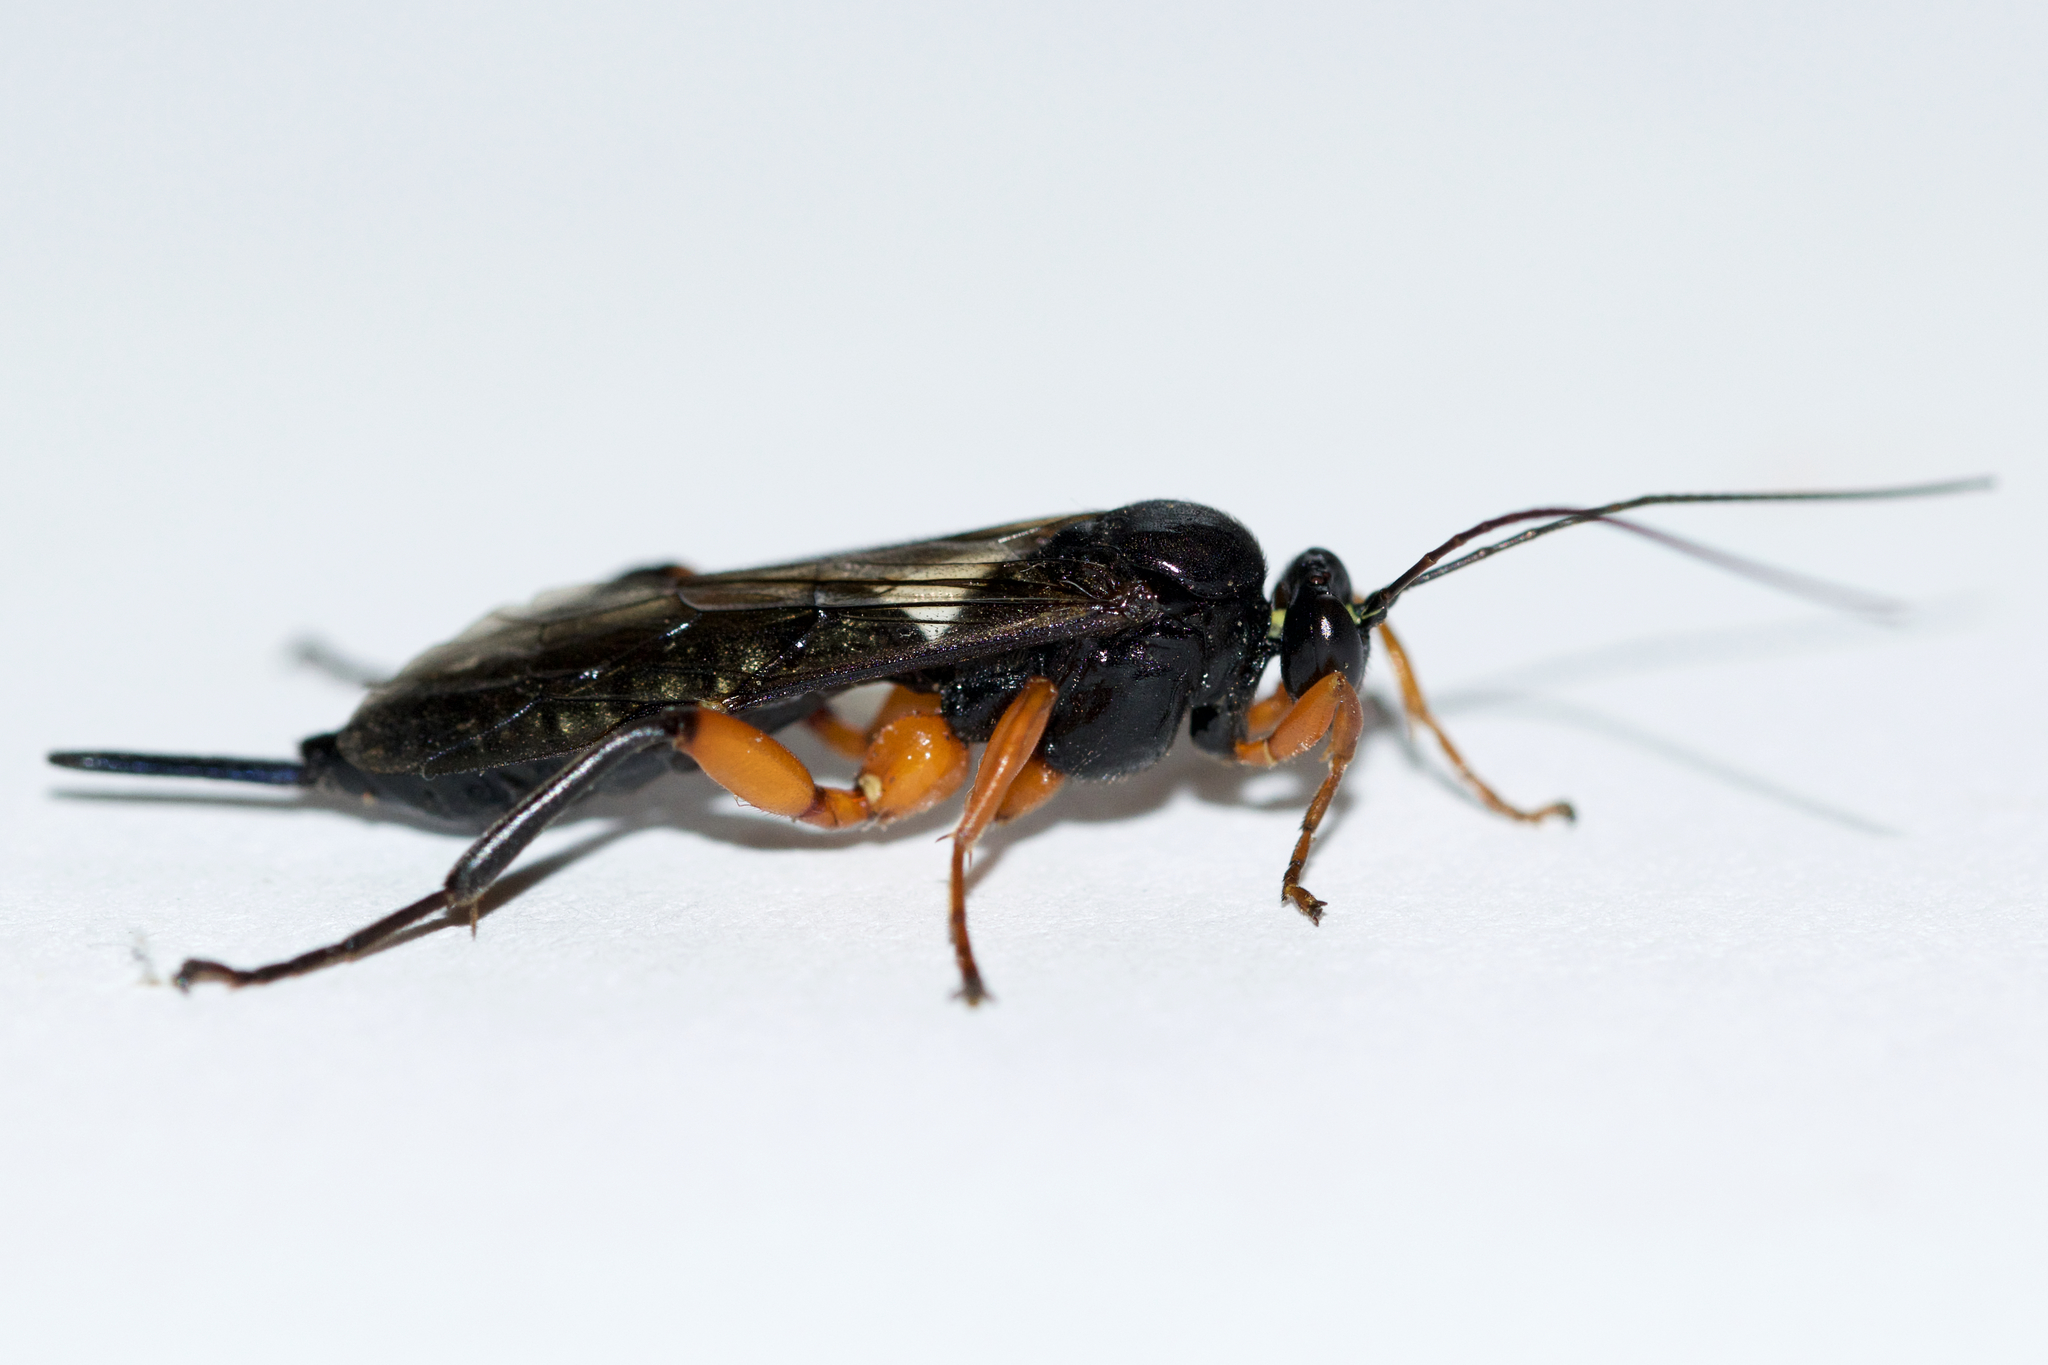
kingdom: Animalia
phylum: Arthropoda
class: Insecta
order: Hymenoptera
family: Ichneumonidae
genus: Pimpla
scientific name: Pimpla pedalis
